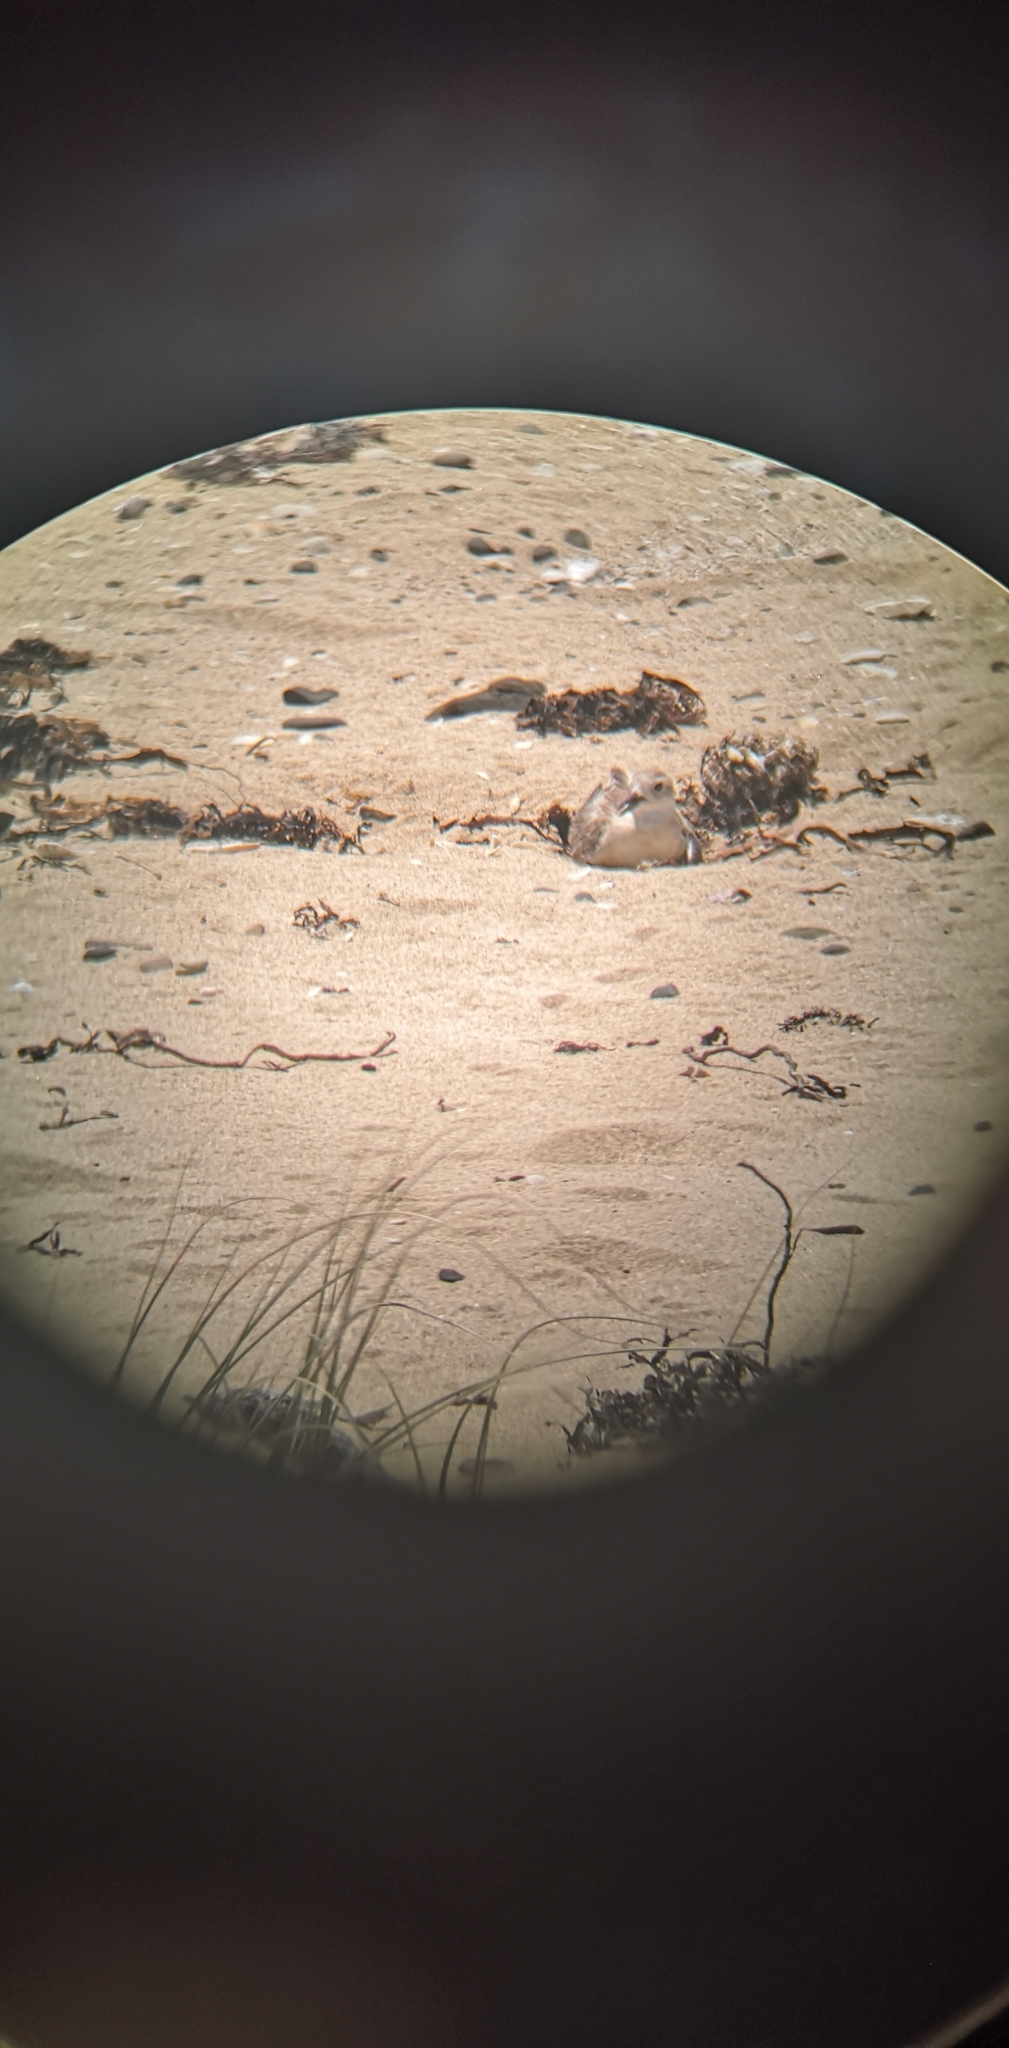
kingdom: Animalia
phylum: Chordata
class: Aves
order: Charadriiformes
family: Charadriidae
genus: Anarhynchus
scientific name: Anarhynchus
